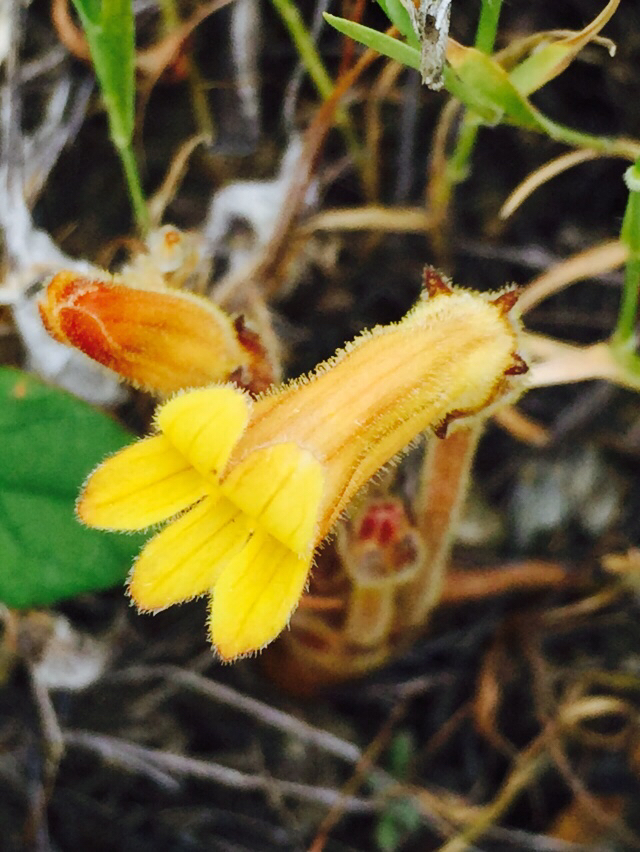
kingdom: Plantae
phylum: Tracheophyta
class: Magnoliopsida
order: Lamiales
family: Orobanchaceae
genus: Aphyllon
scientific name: Aphyllon franciscanum
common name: San francisco broomrape
